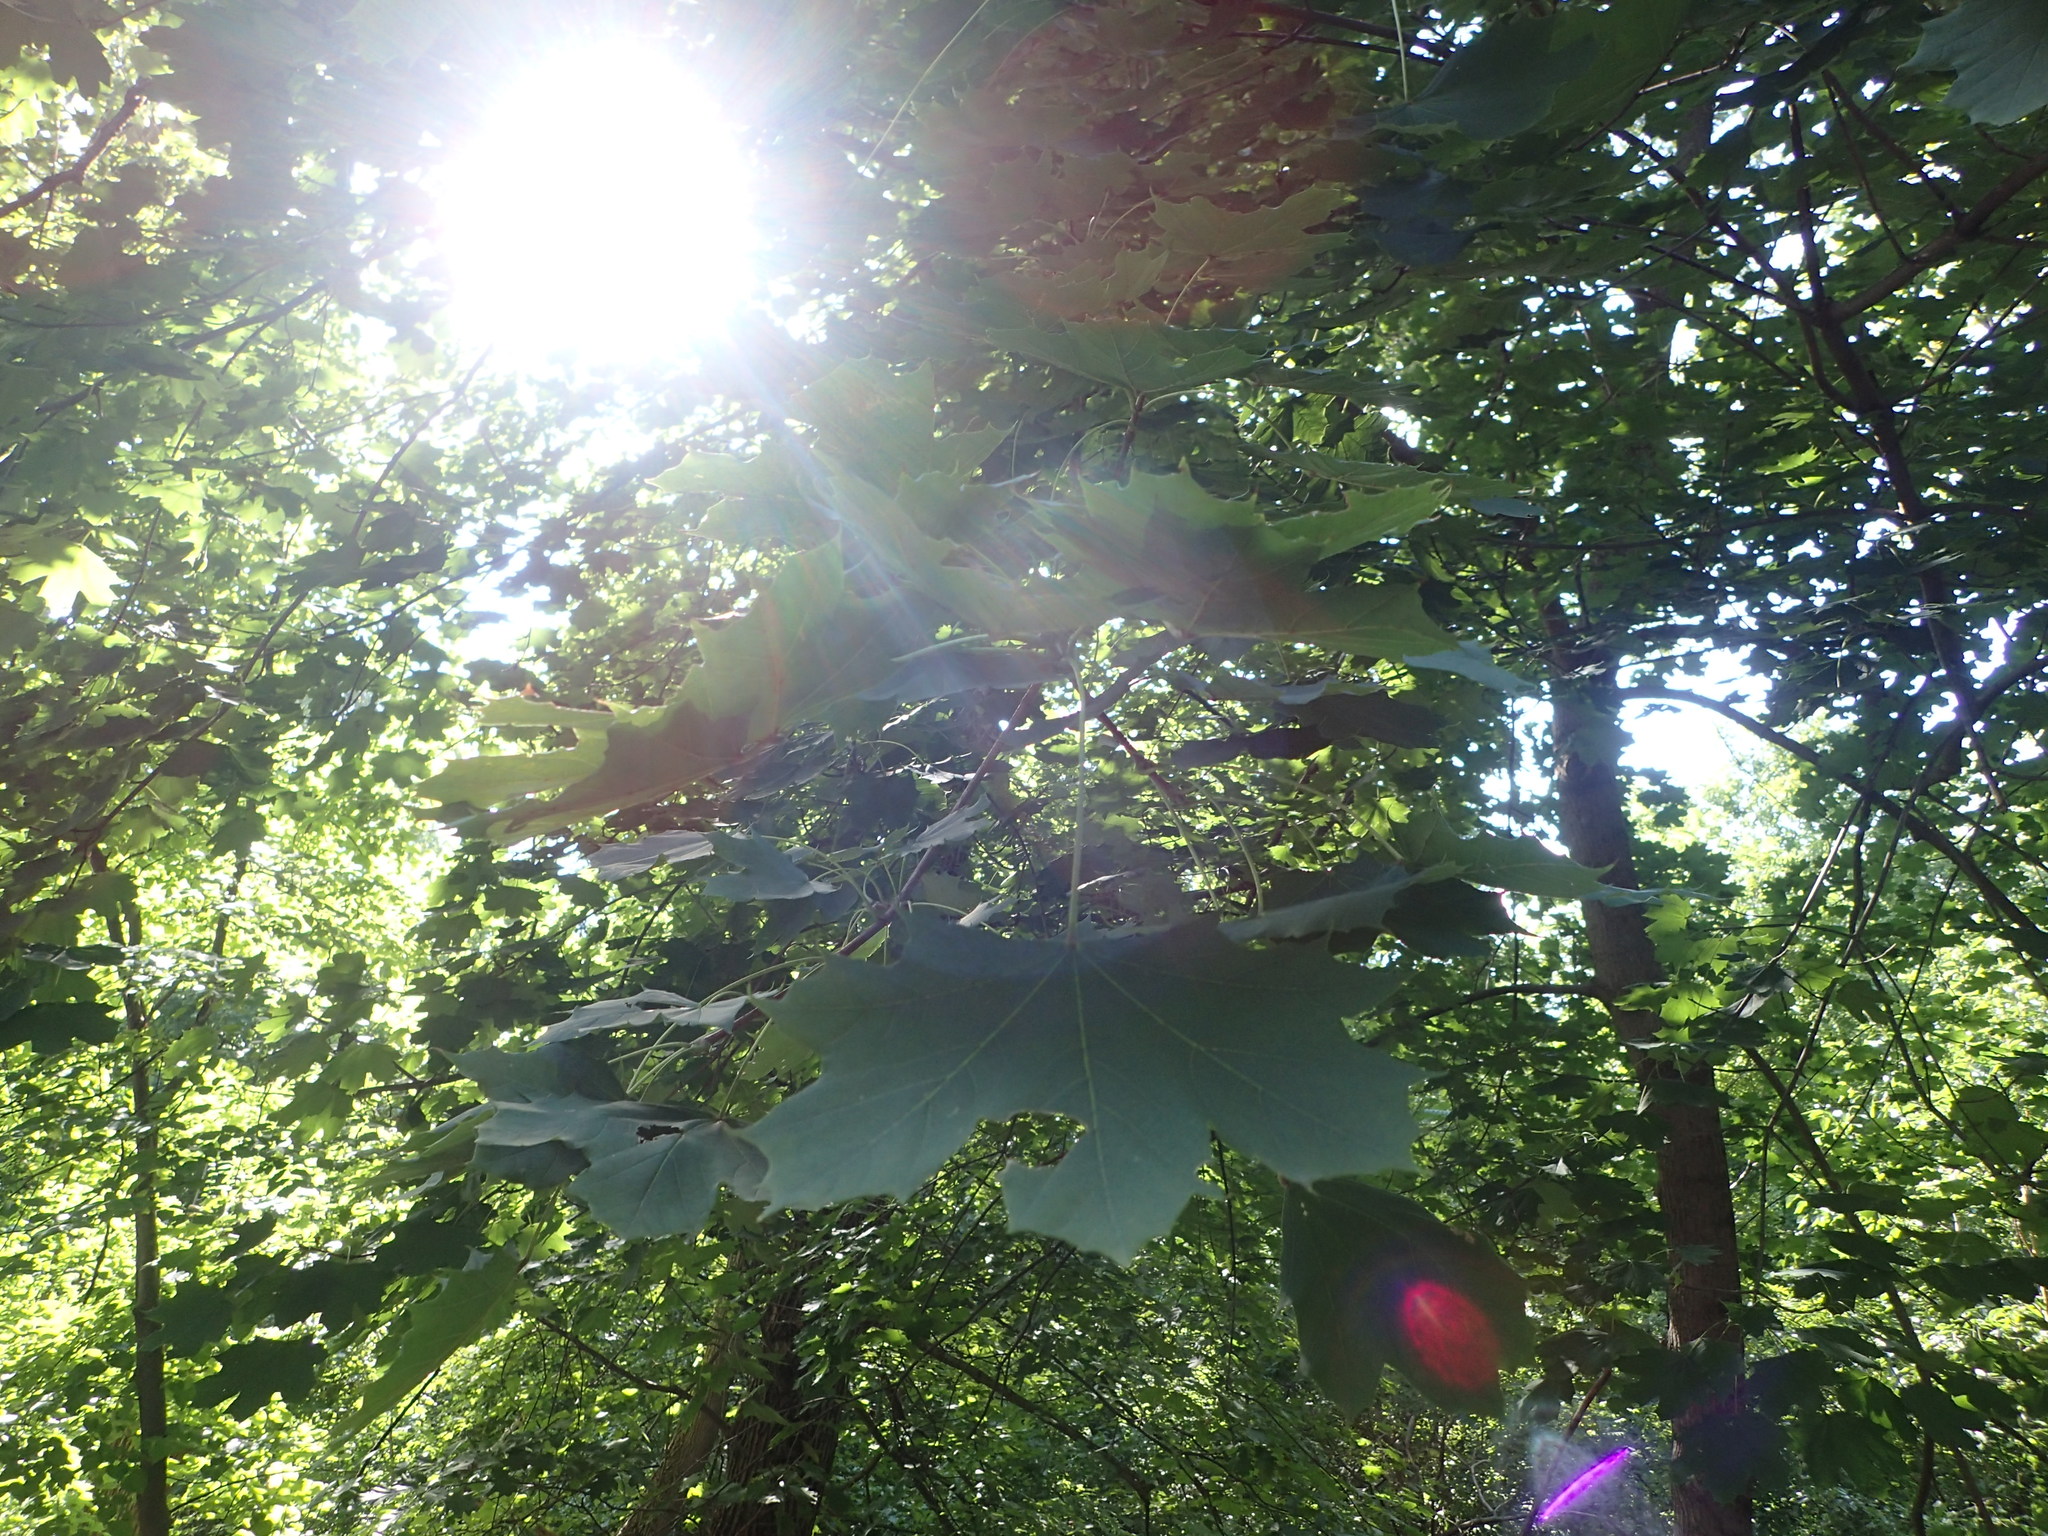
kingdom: Plantae
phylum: Tracheophyta
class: Magnoliopsida
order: Sapindales
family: Sapindaceae
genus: Acer
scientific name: Acer platanoides
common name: Norway maple
